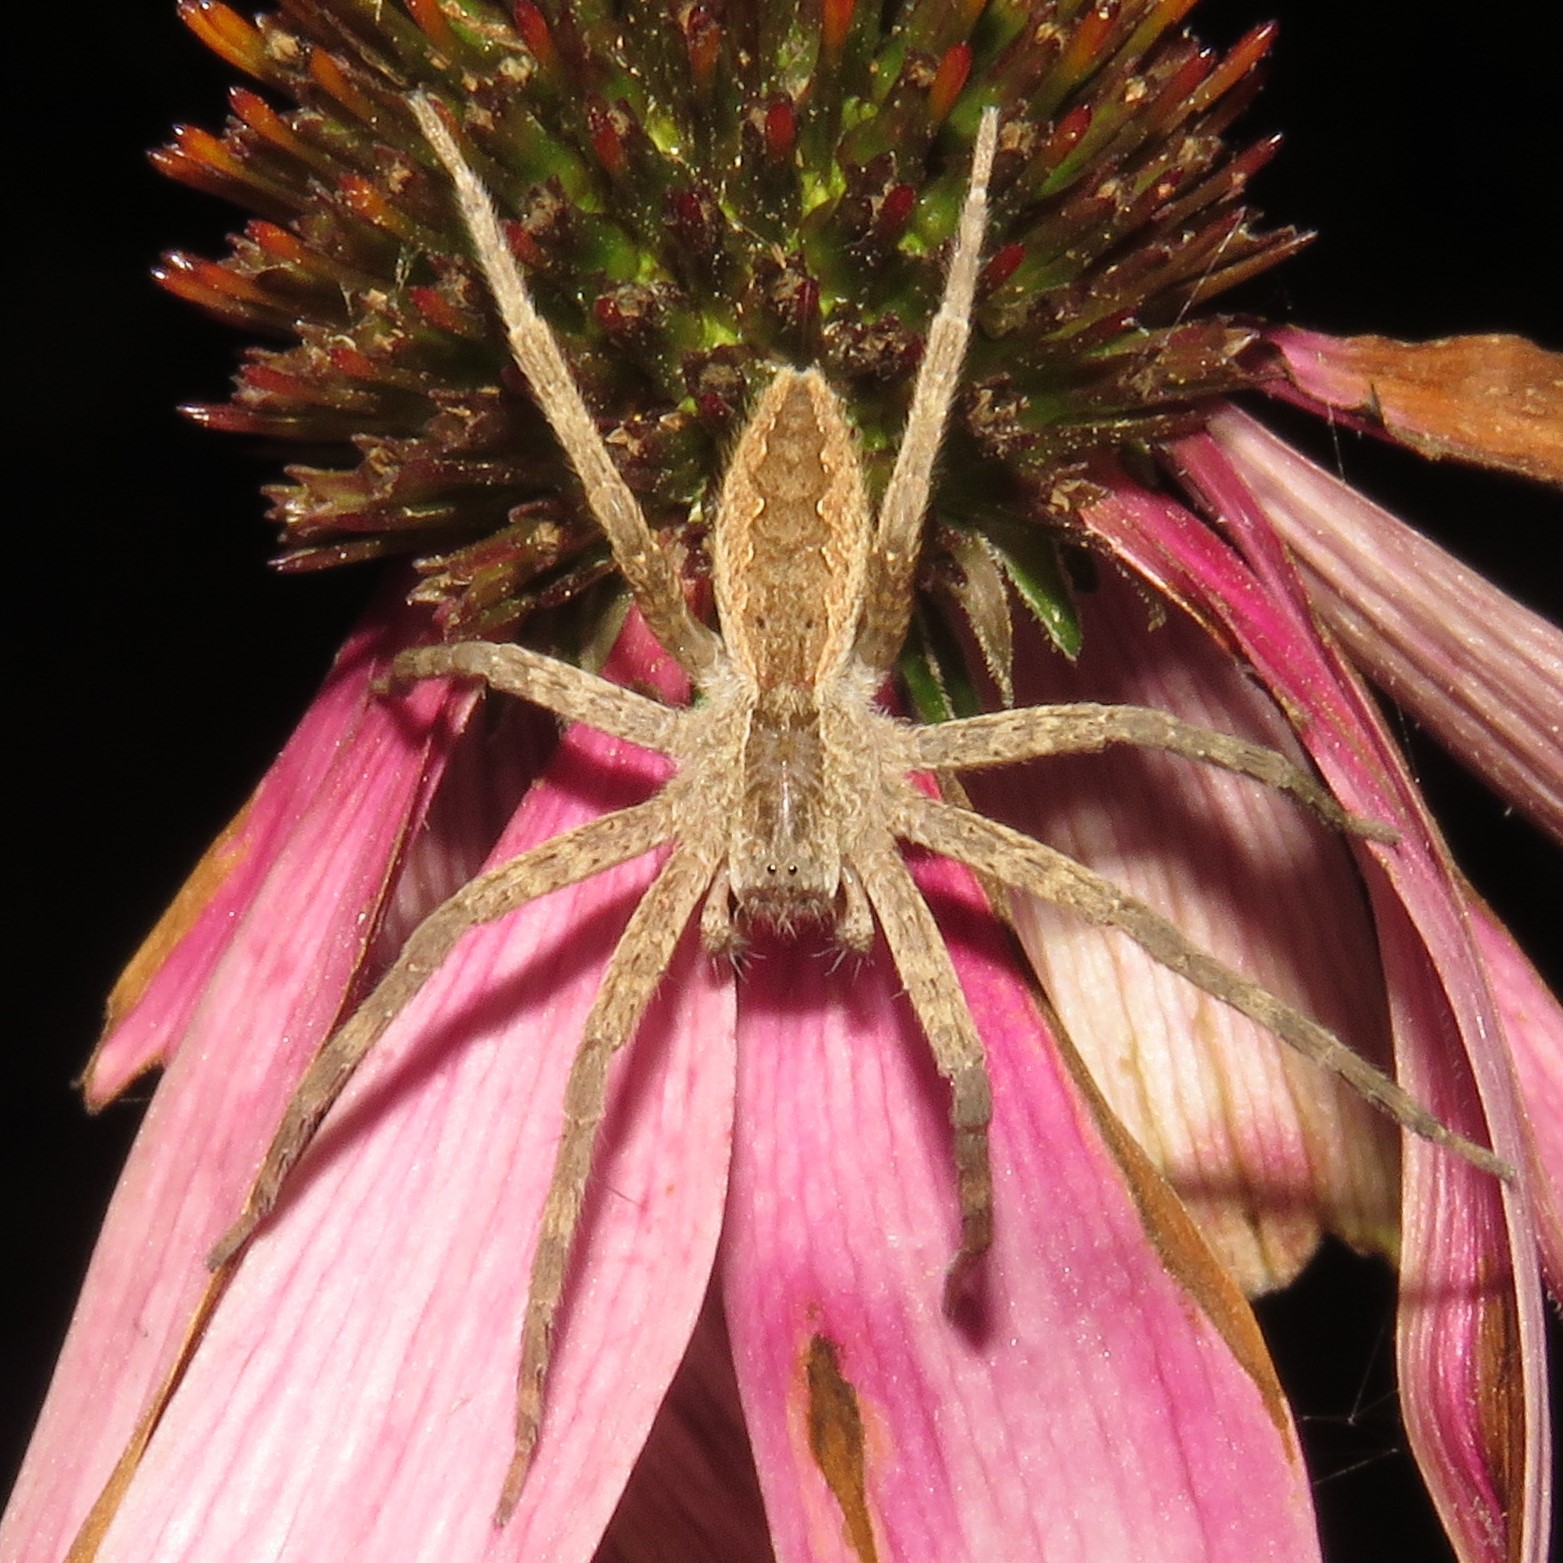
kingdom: Animalia
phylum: Arthropoda
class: Arachnida
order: Araneae
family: Pisauridae
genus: Pisaurina
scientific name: Pisaurina mira
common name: American nursery web spider
